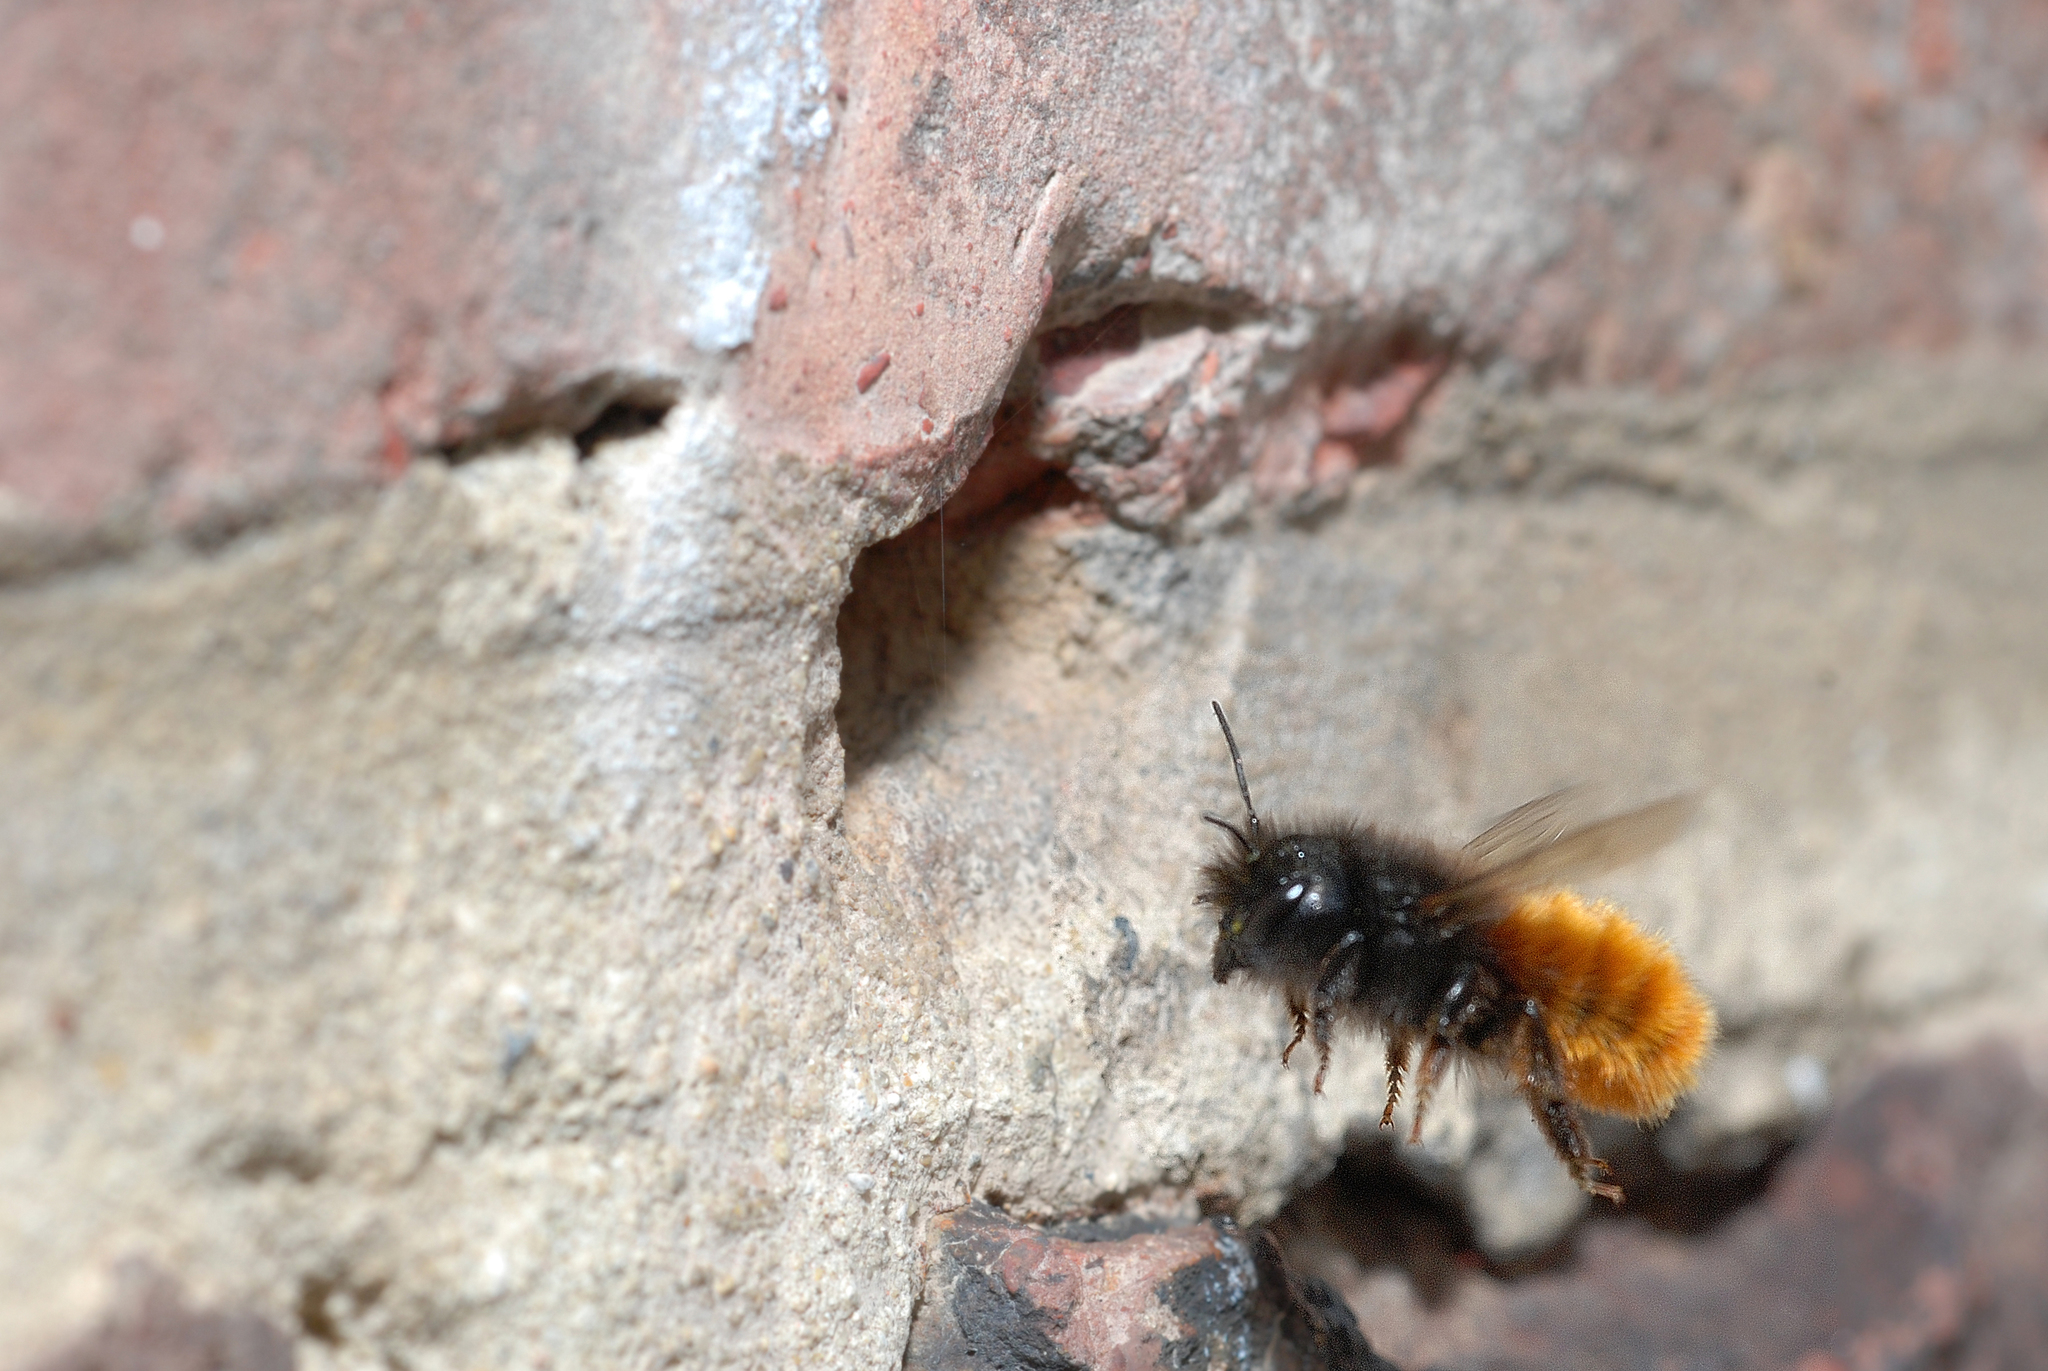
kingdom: Animalia
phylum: Arthropoda
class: Insecta
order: Hymenoptera
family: Megachilidae
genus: Osmia
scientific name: Osmia cornuta
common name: Mason bee
